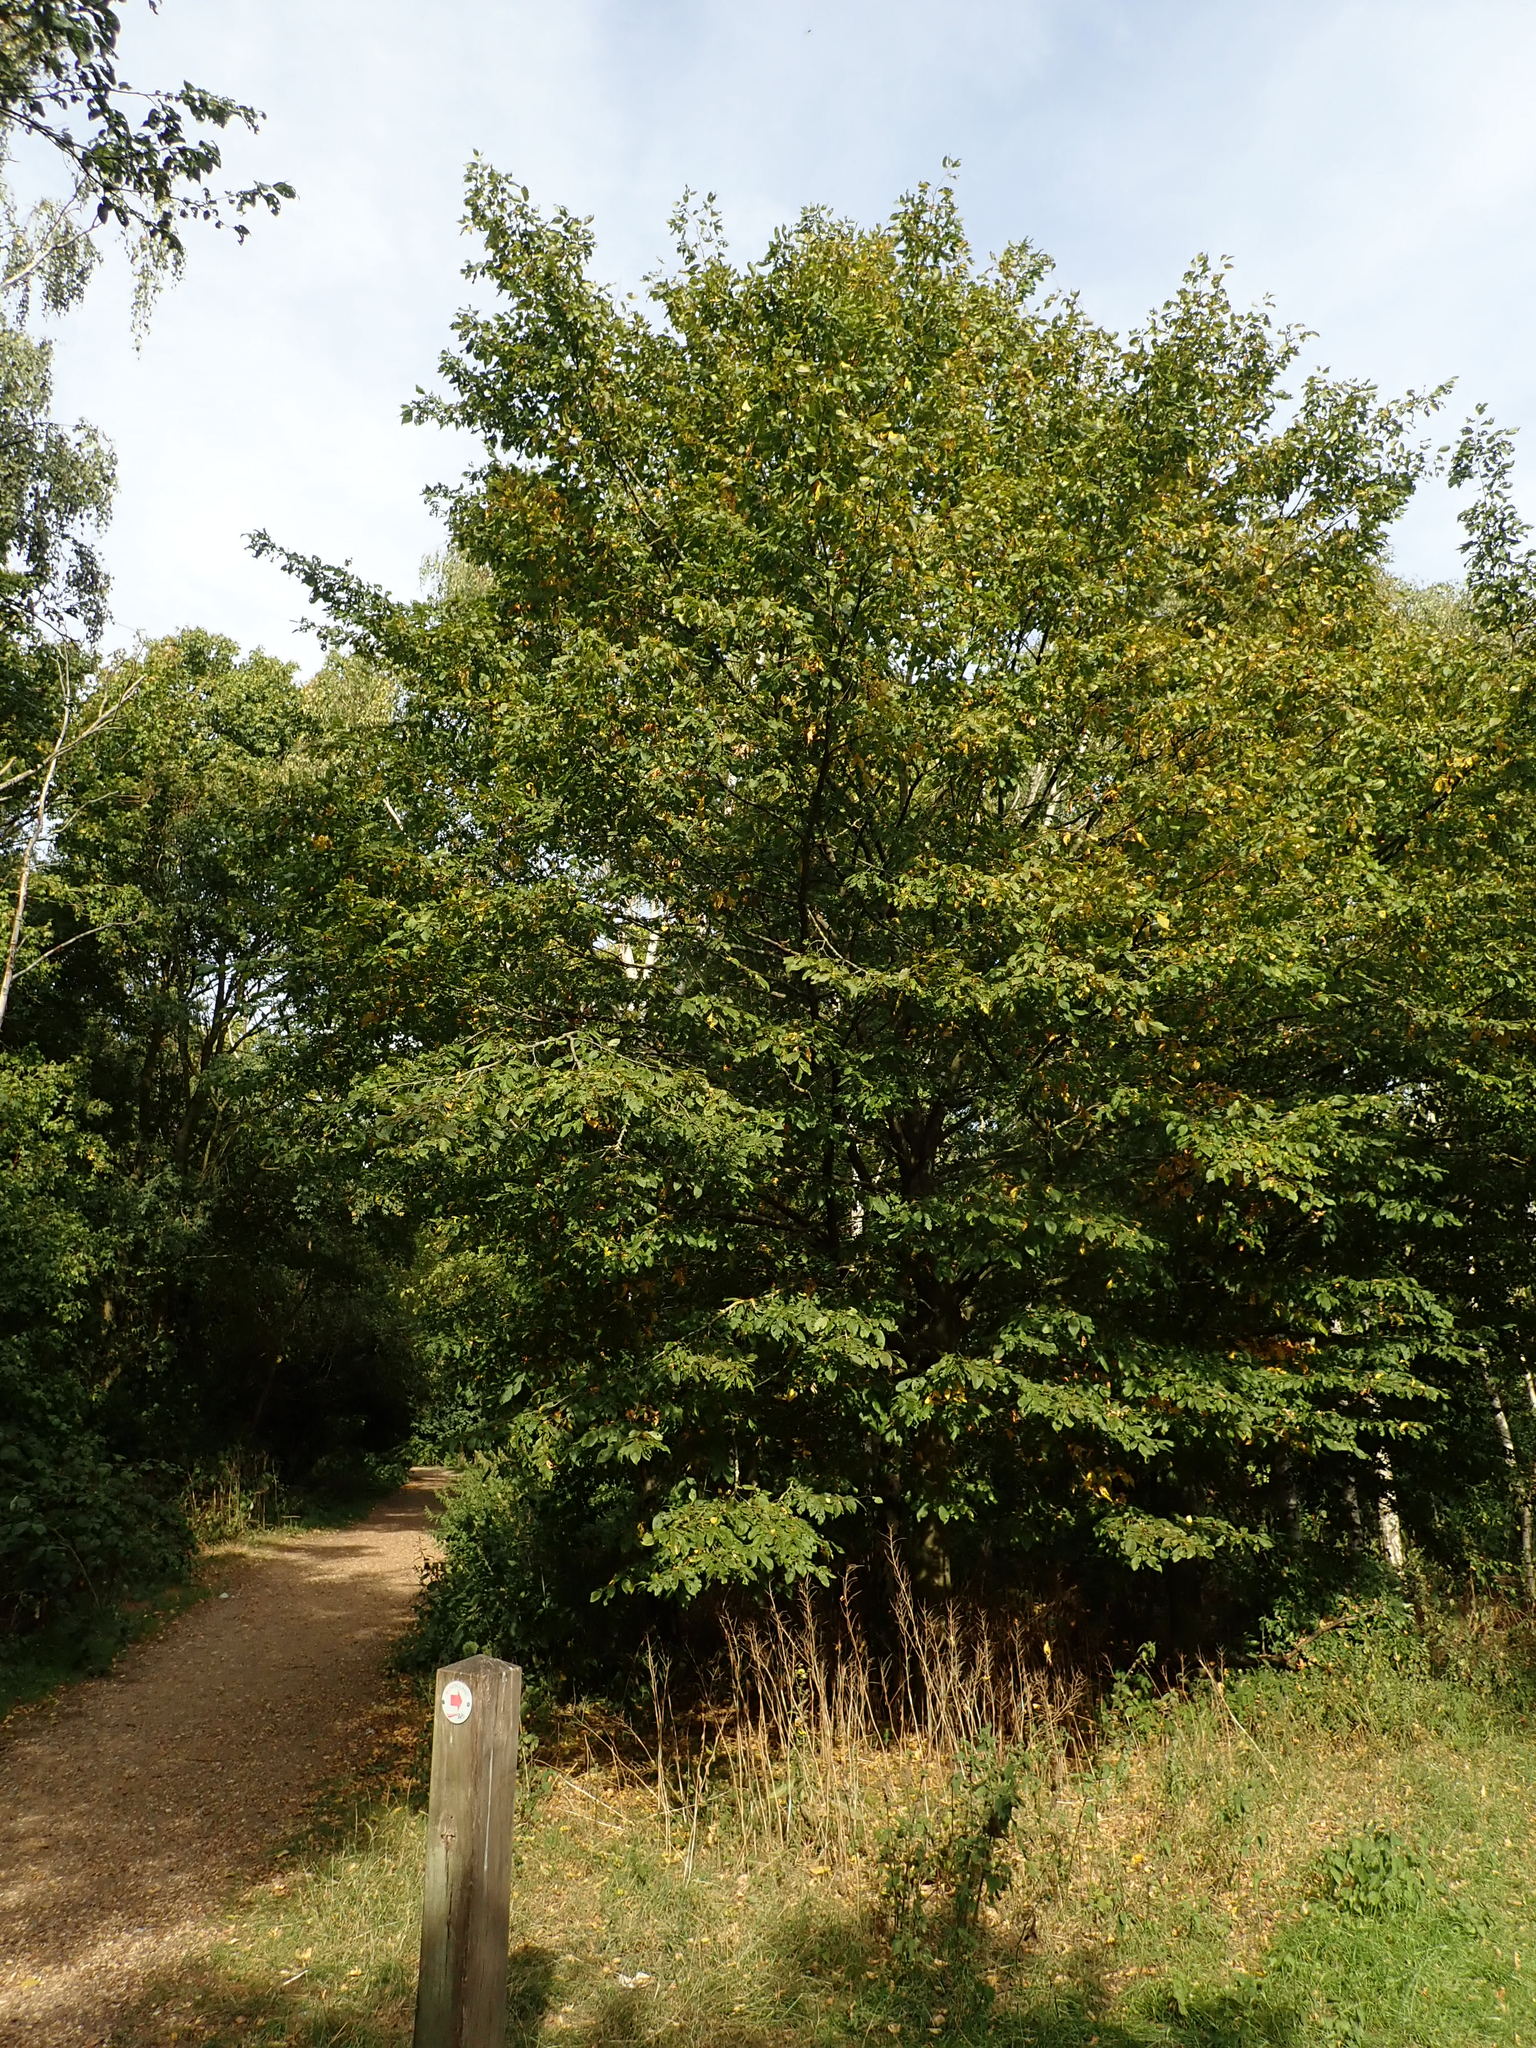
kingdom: Plantae
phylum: Tracheophyta
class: Magnoliopsida
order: Fagales
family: Betulaceae
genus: Carpinus
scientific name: Carpinus betulus
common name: Hornbeam
